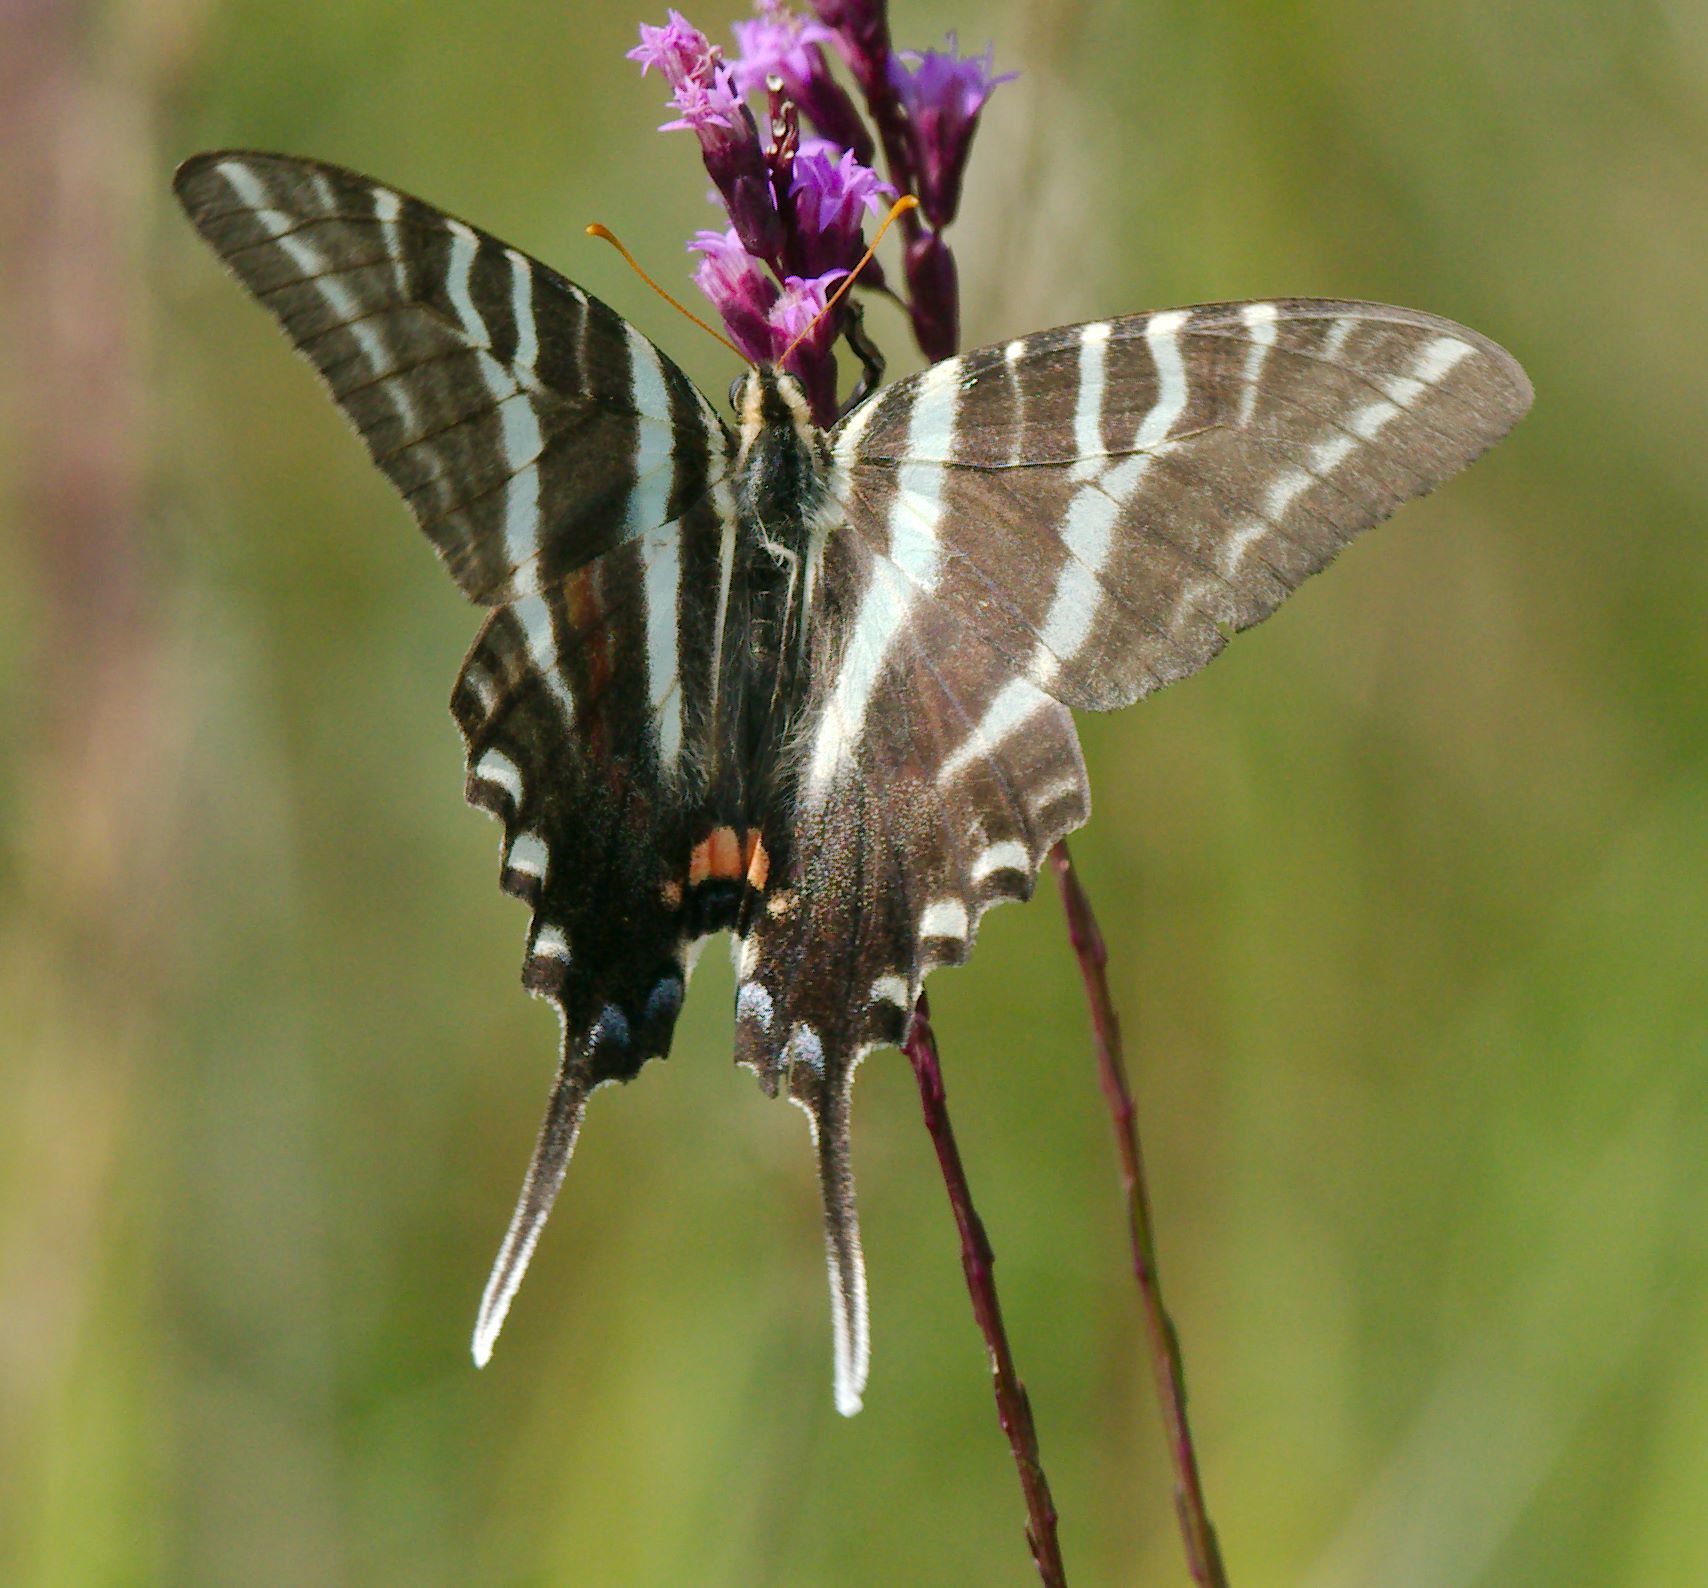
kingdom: Animalia
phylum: Arthropoda
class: Insecta
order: Lepidoptera
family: Papilionidae
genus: Protographium
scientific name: Protographium marcellus
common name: Zebra swallowtail
